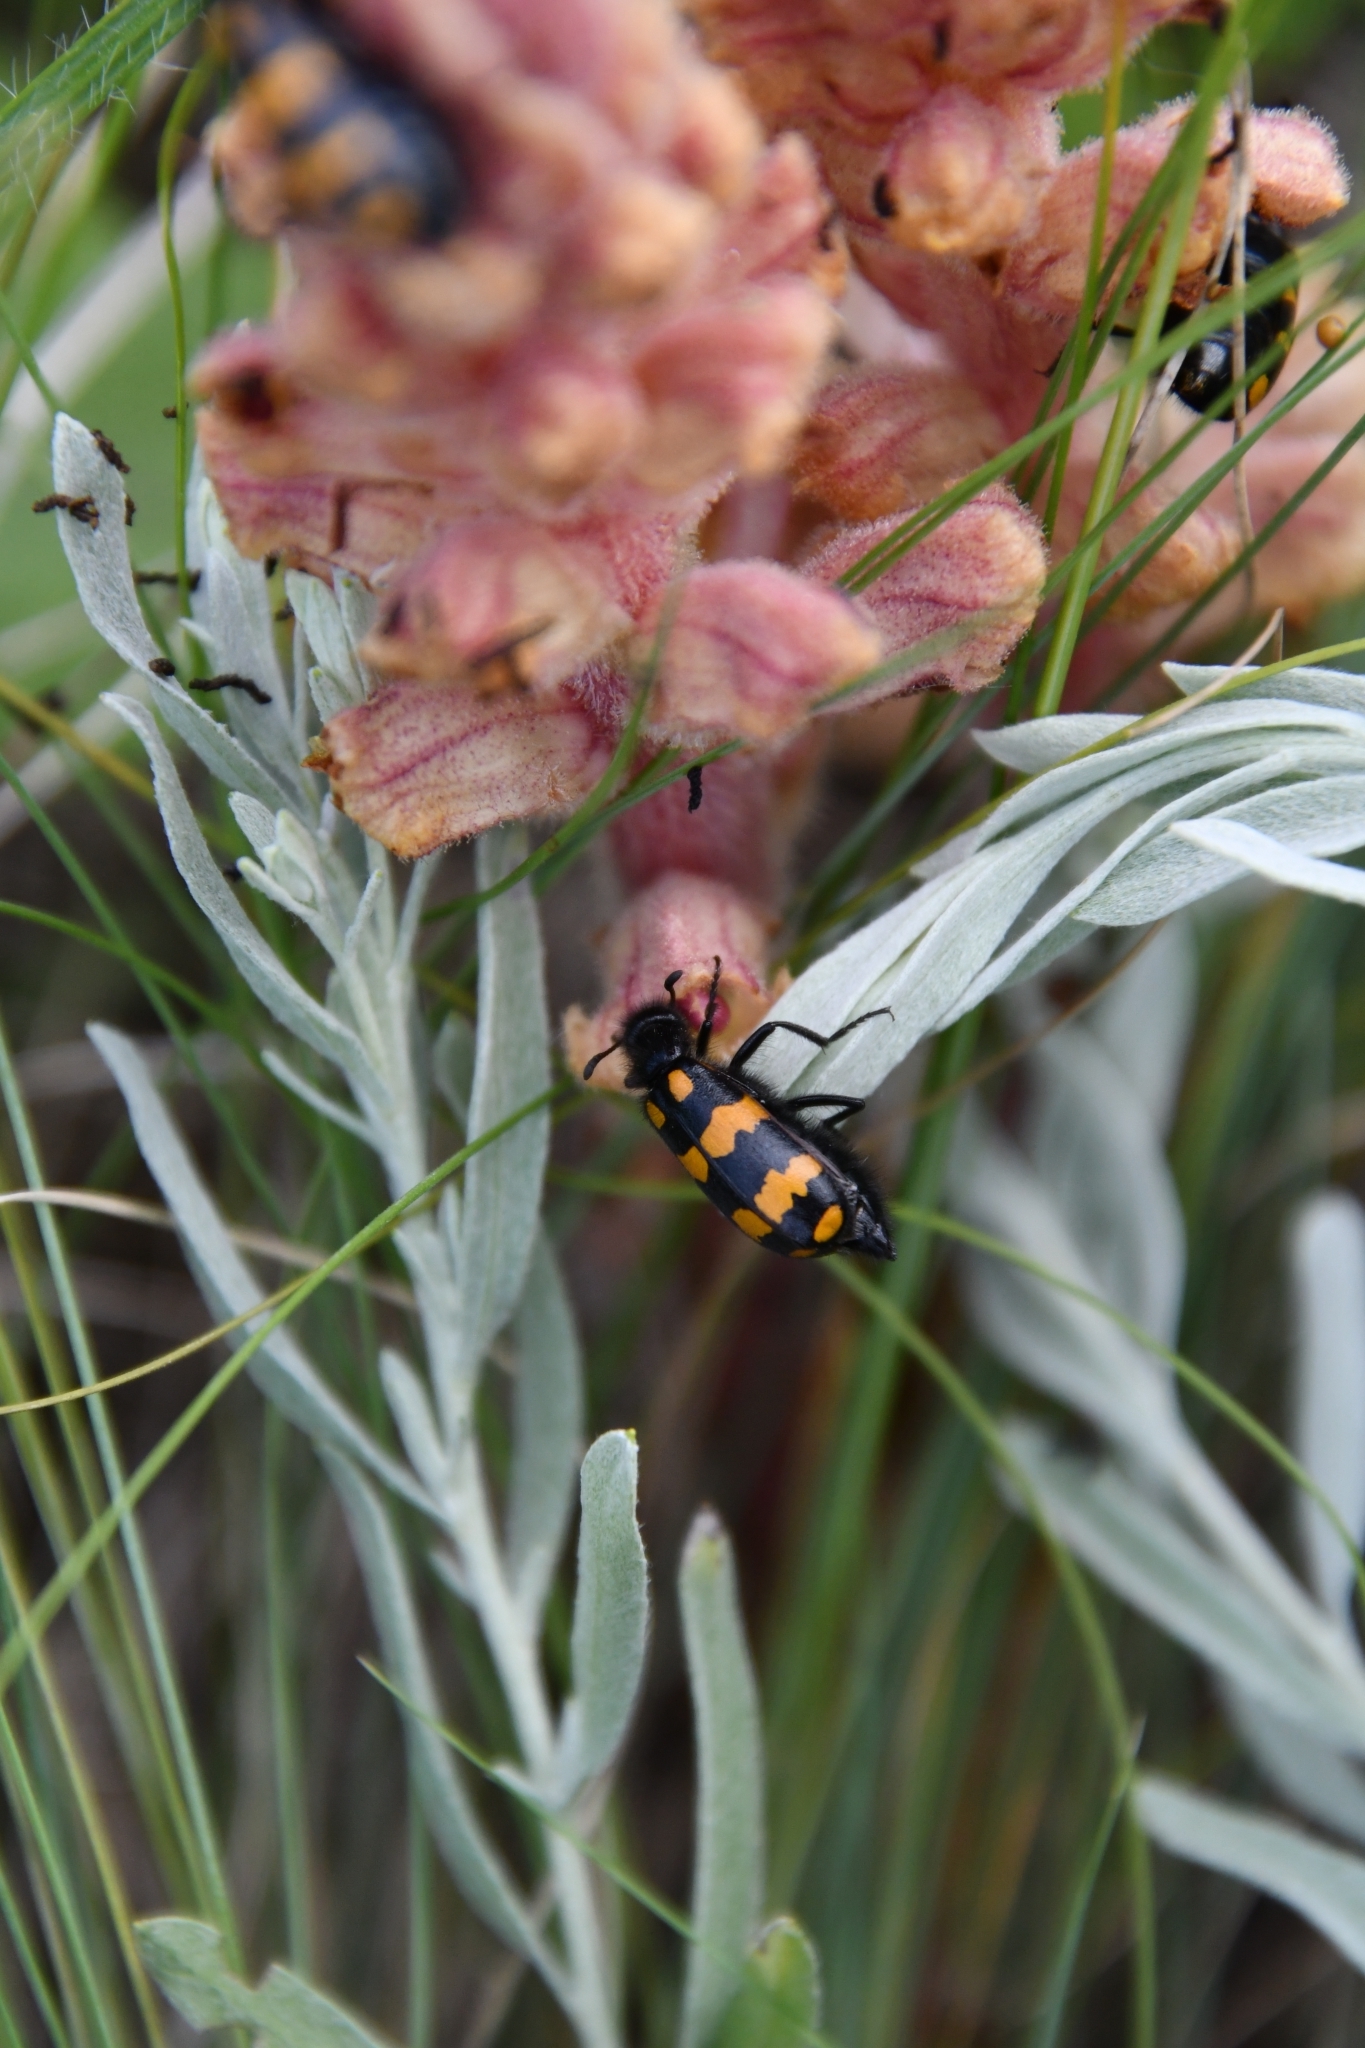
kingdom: Plantae
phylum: Tracheophyta
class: Magnoliopsida
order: Lamiales
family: Orobanchaceae
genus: Orobanche
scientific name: Orobanche alba
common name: Thyme broomrape
